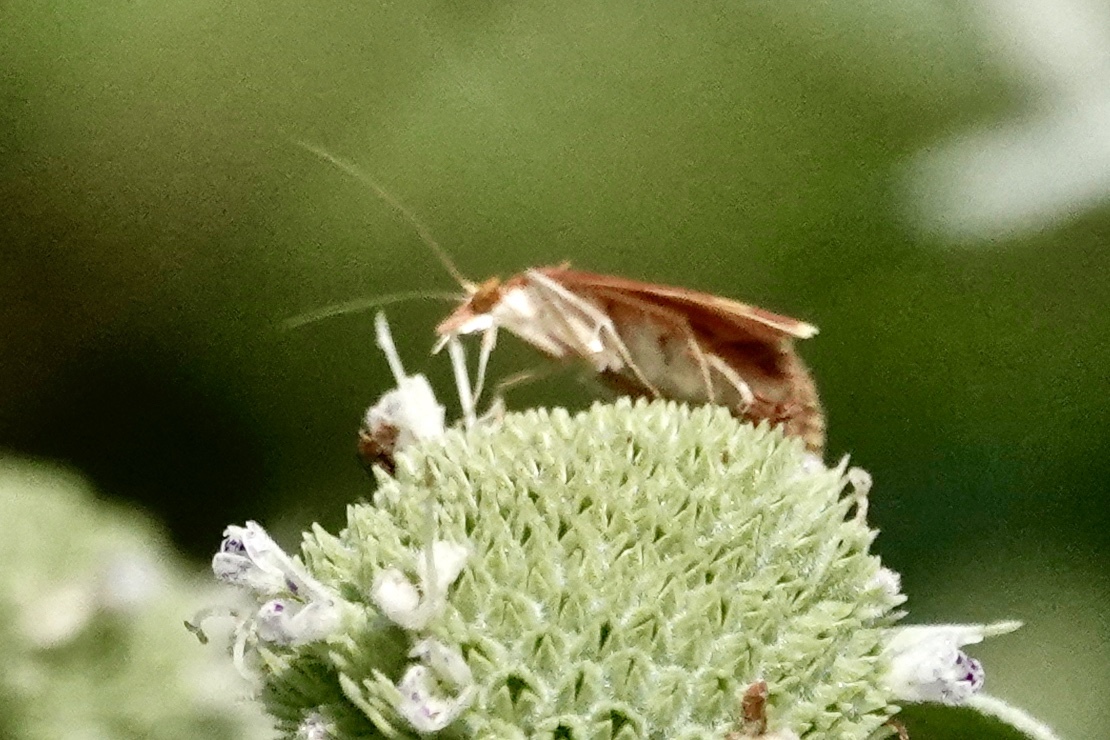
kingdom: Animalia
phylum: Arthropoda
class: Insecta
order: Lepidoptera
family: Crambidae
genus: Pyrausta
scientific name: Pyrausta acrionalis
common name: Mint-loving pyrausta moth
